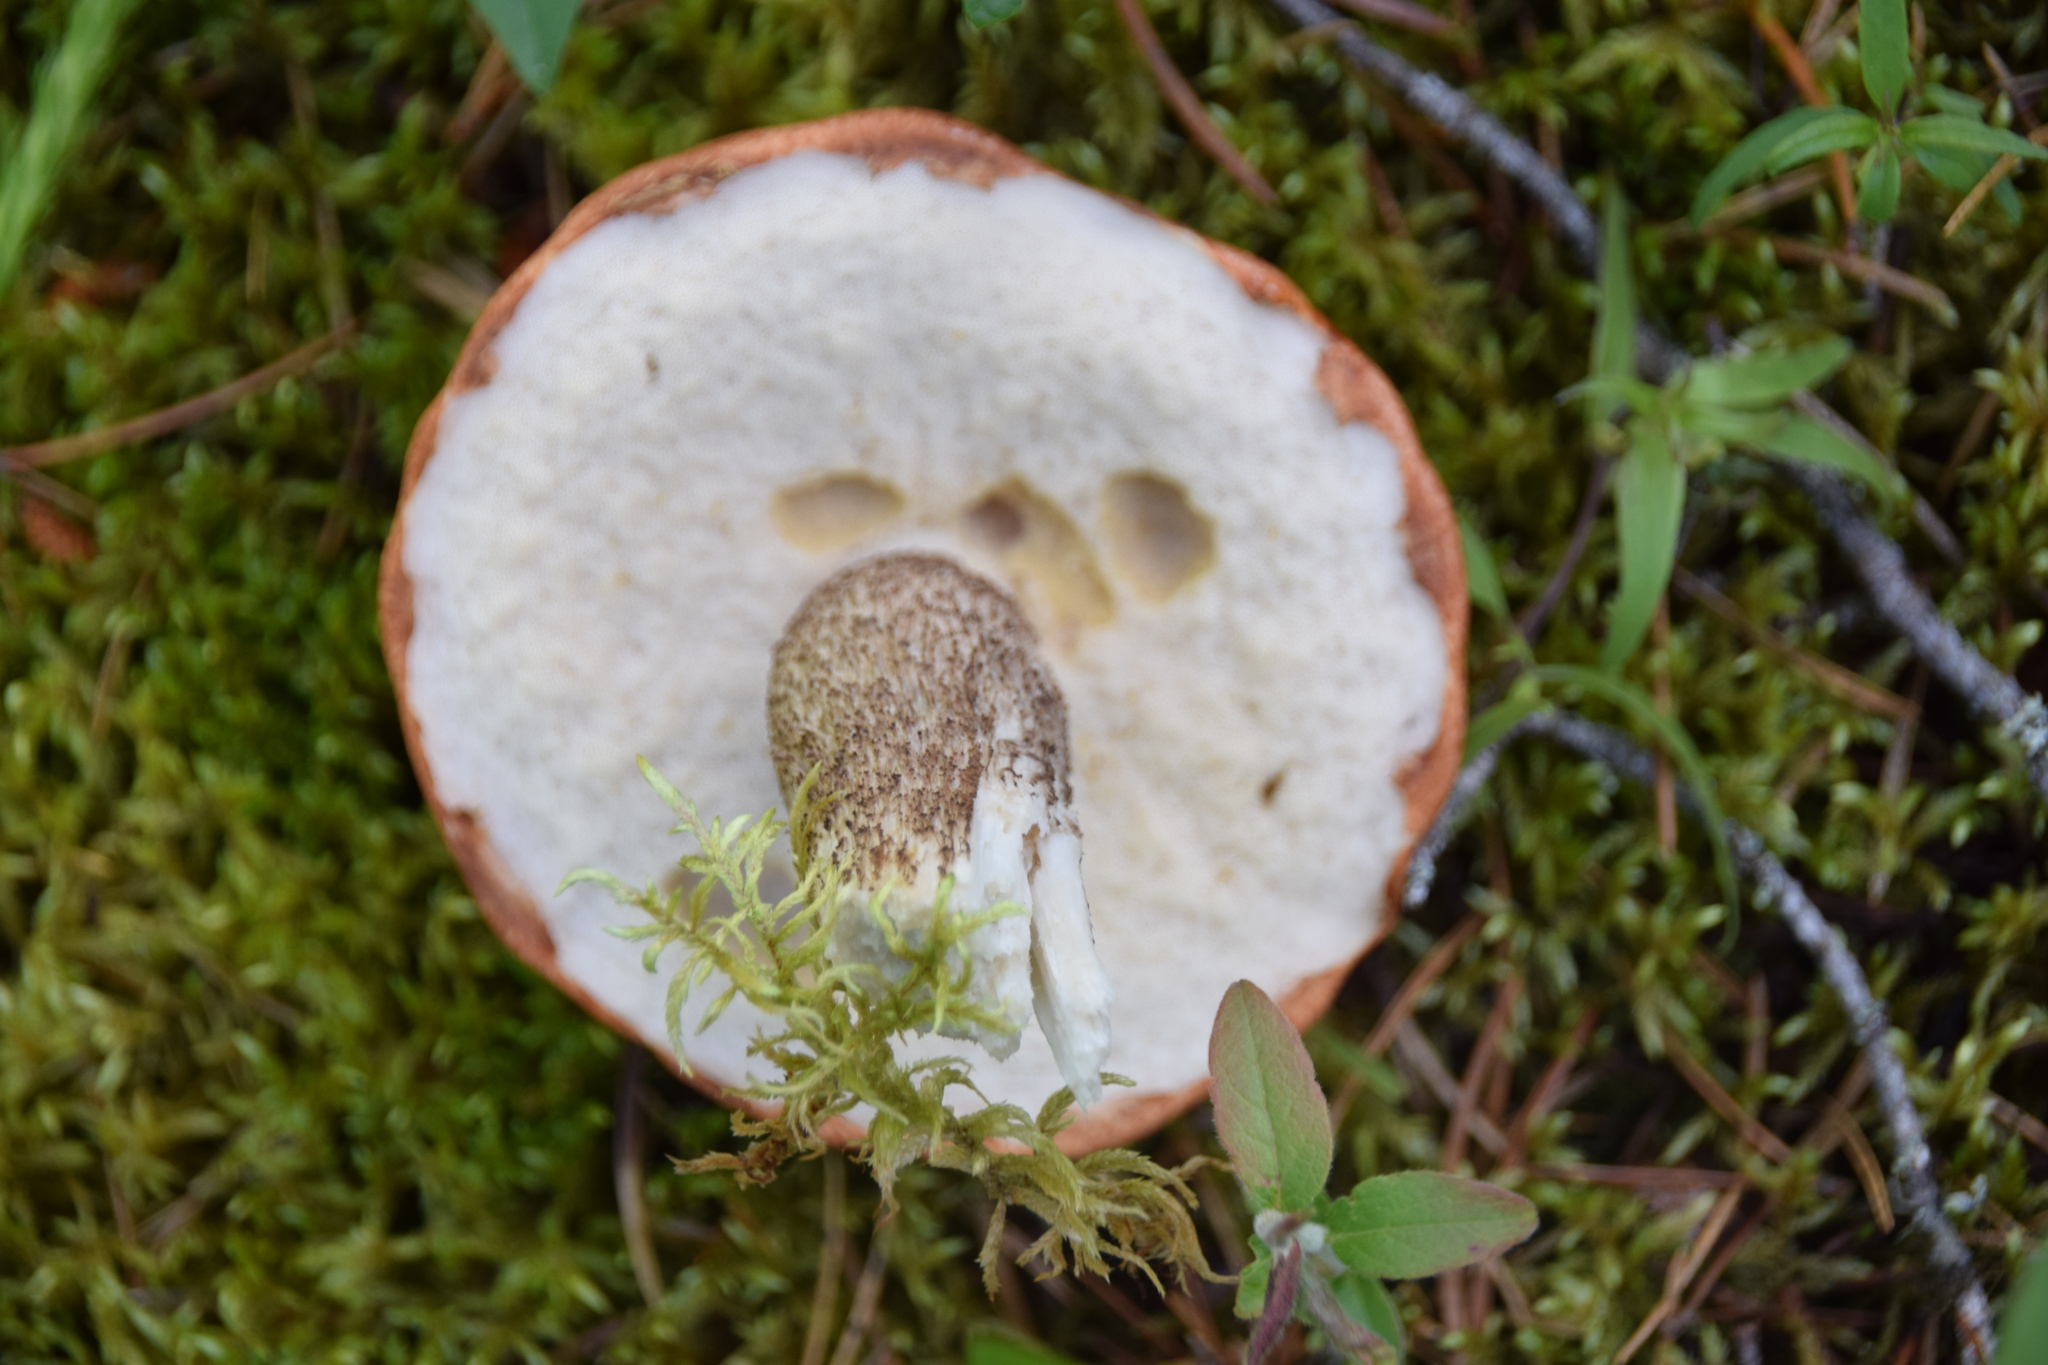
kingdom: Fungi
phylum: Basidiomycota
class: Agaricomycetes
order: Boletales
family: Boletaceae
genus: Leccinum
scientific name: Leccinum aurantiacum
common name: Orange bolete
